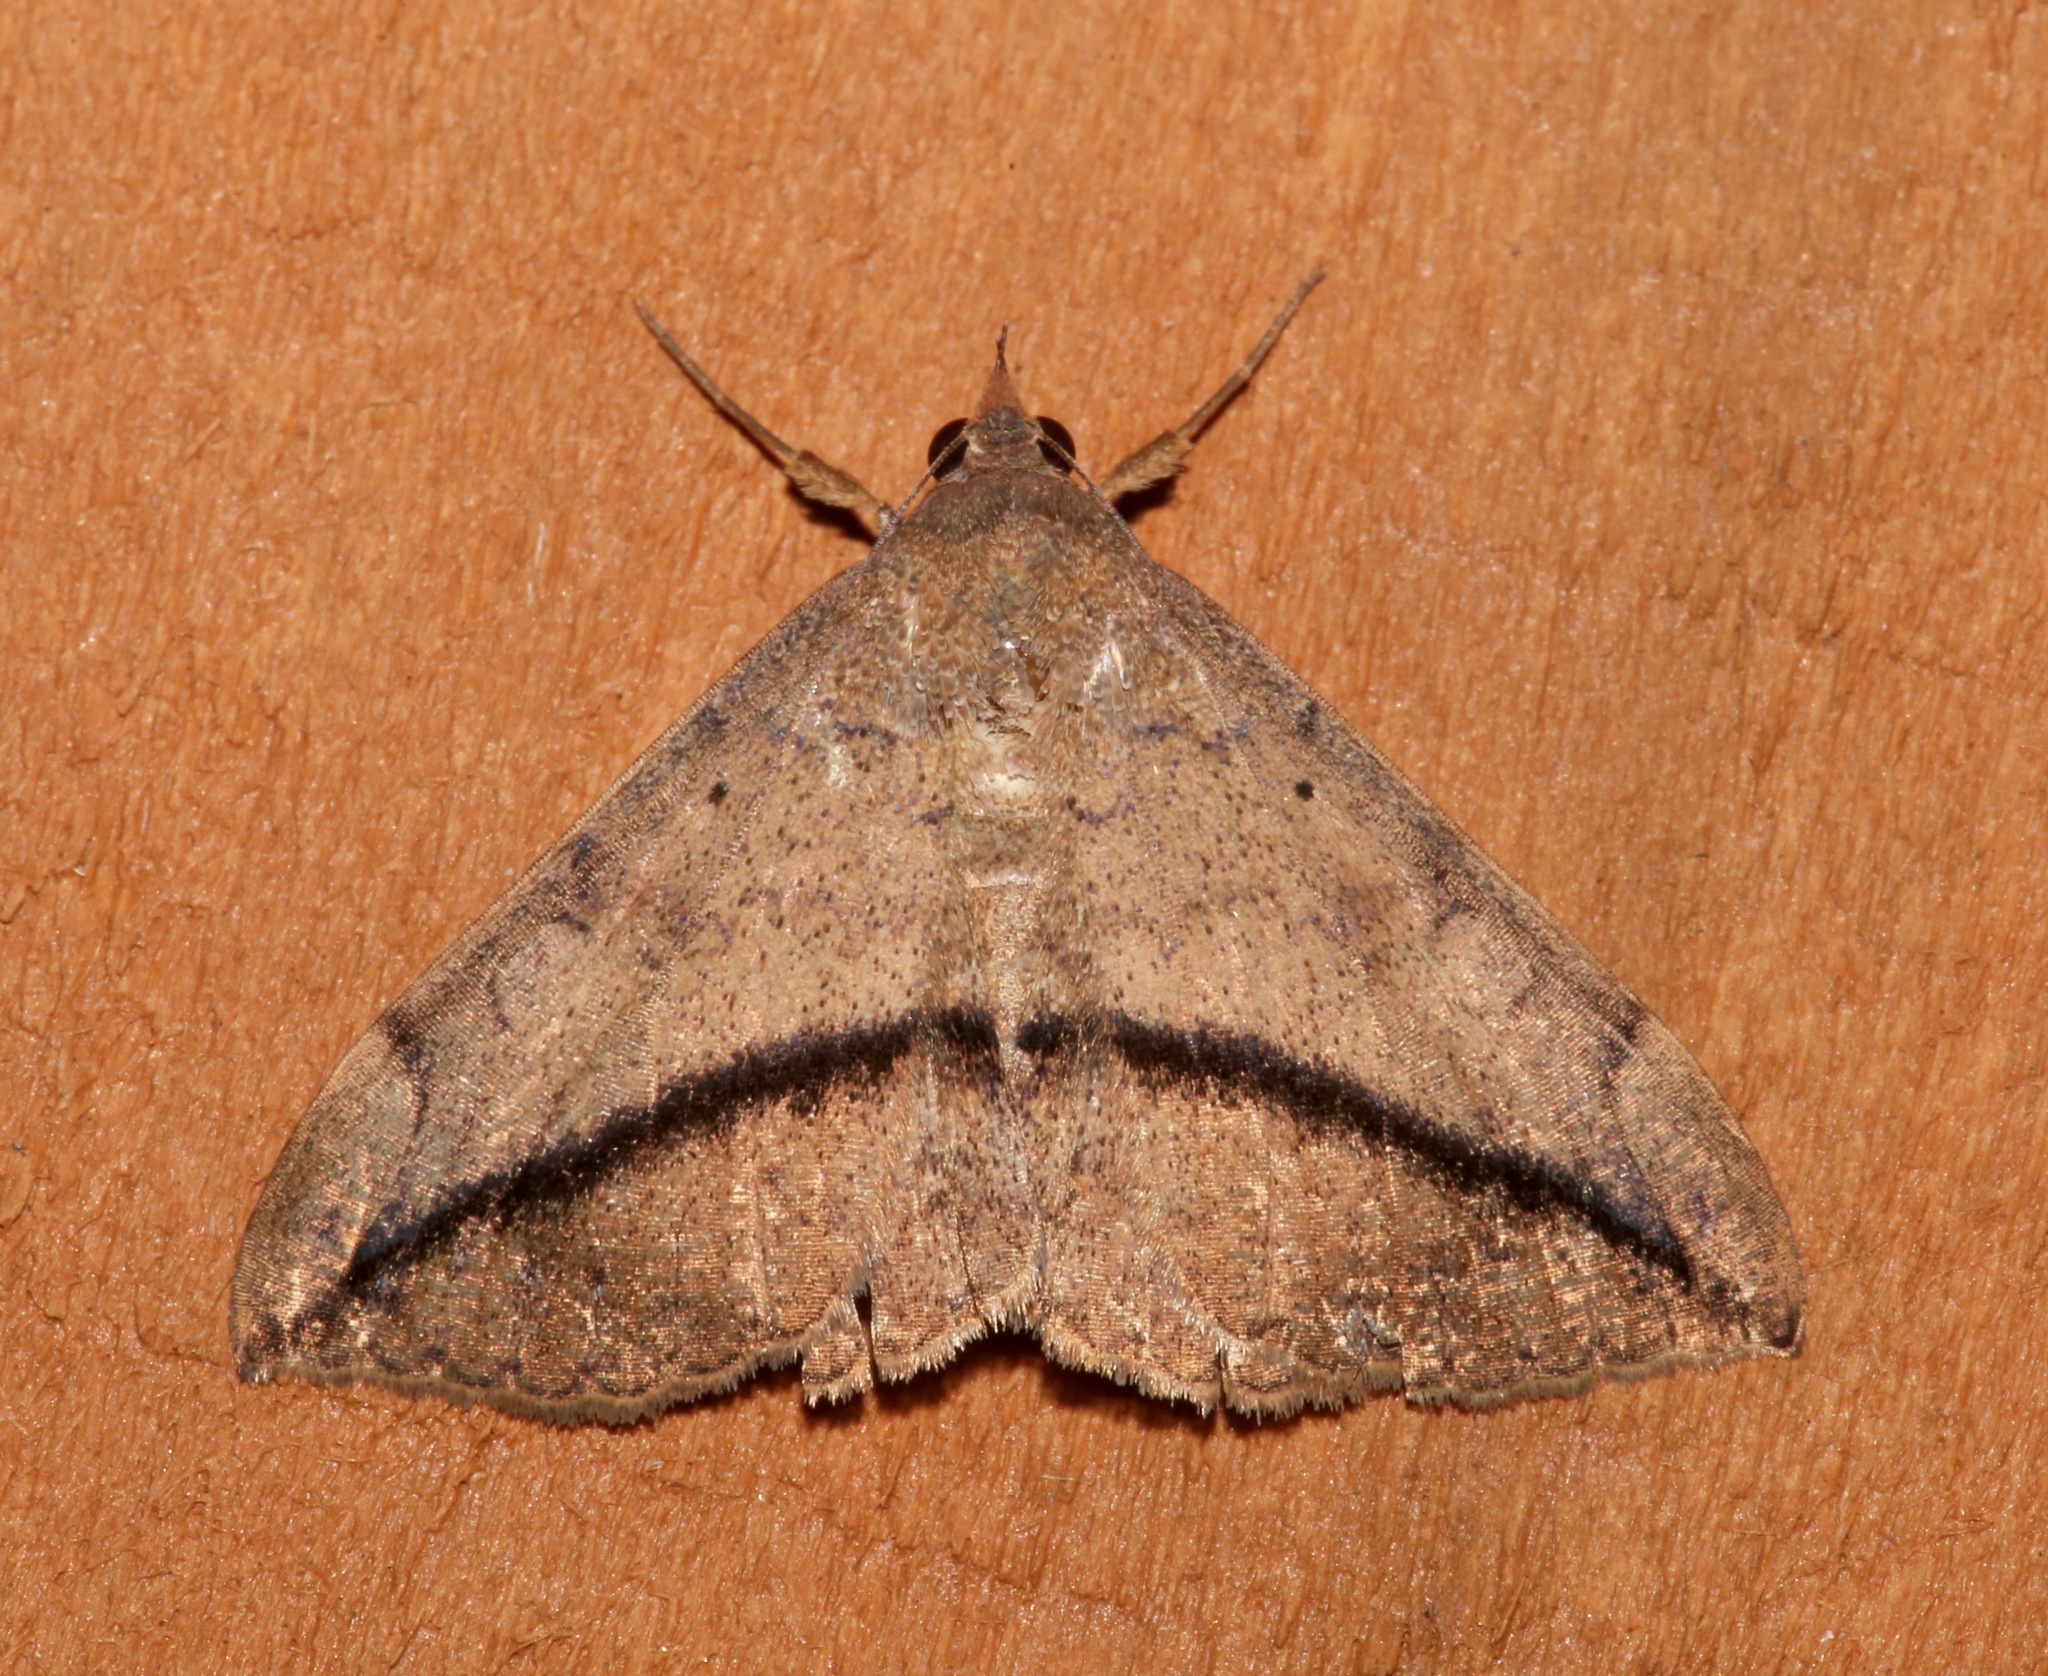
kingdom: Animalia
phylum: Arthropoda
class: Insecta
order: Lepidoptera
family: Erebidae
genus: Anticarsia
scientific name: Anticarsia gemmatalis
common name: Cutworm moth
